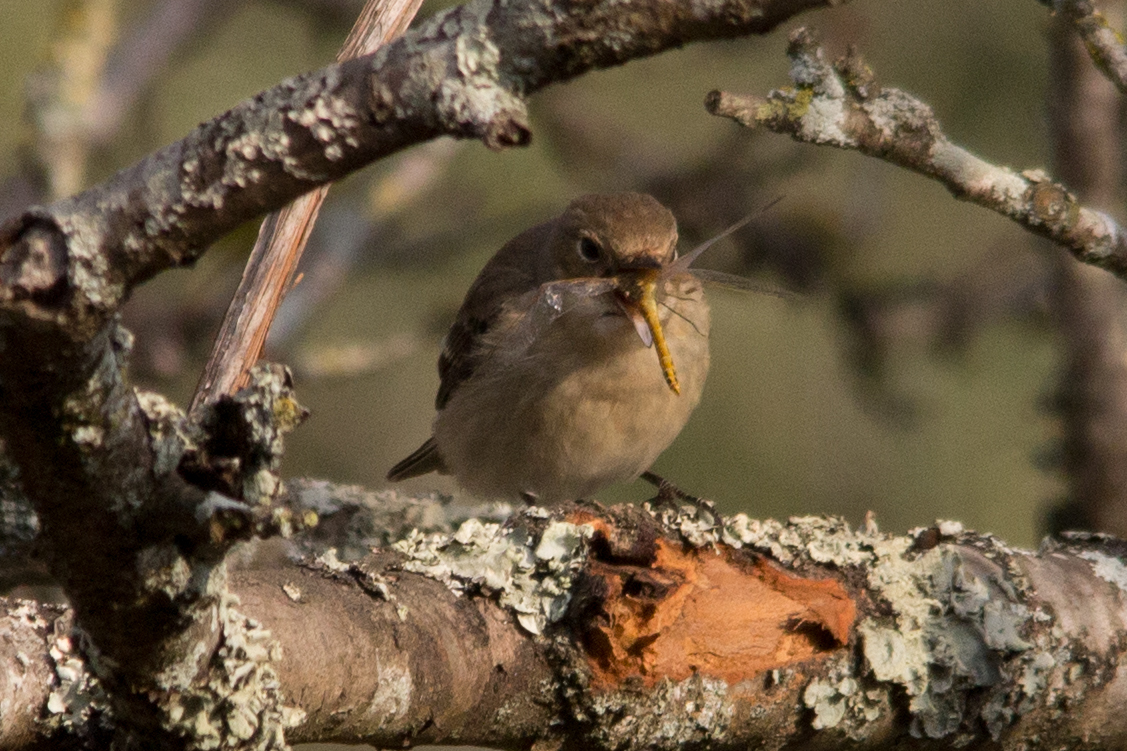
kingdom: Animalia
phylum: Chordata
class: Aves
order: Passeriformes
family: Muscicapidae
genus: Ficedula
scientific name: Ficedula hypoleuca
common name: European pied flycatcher
